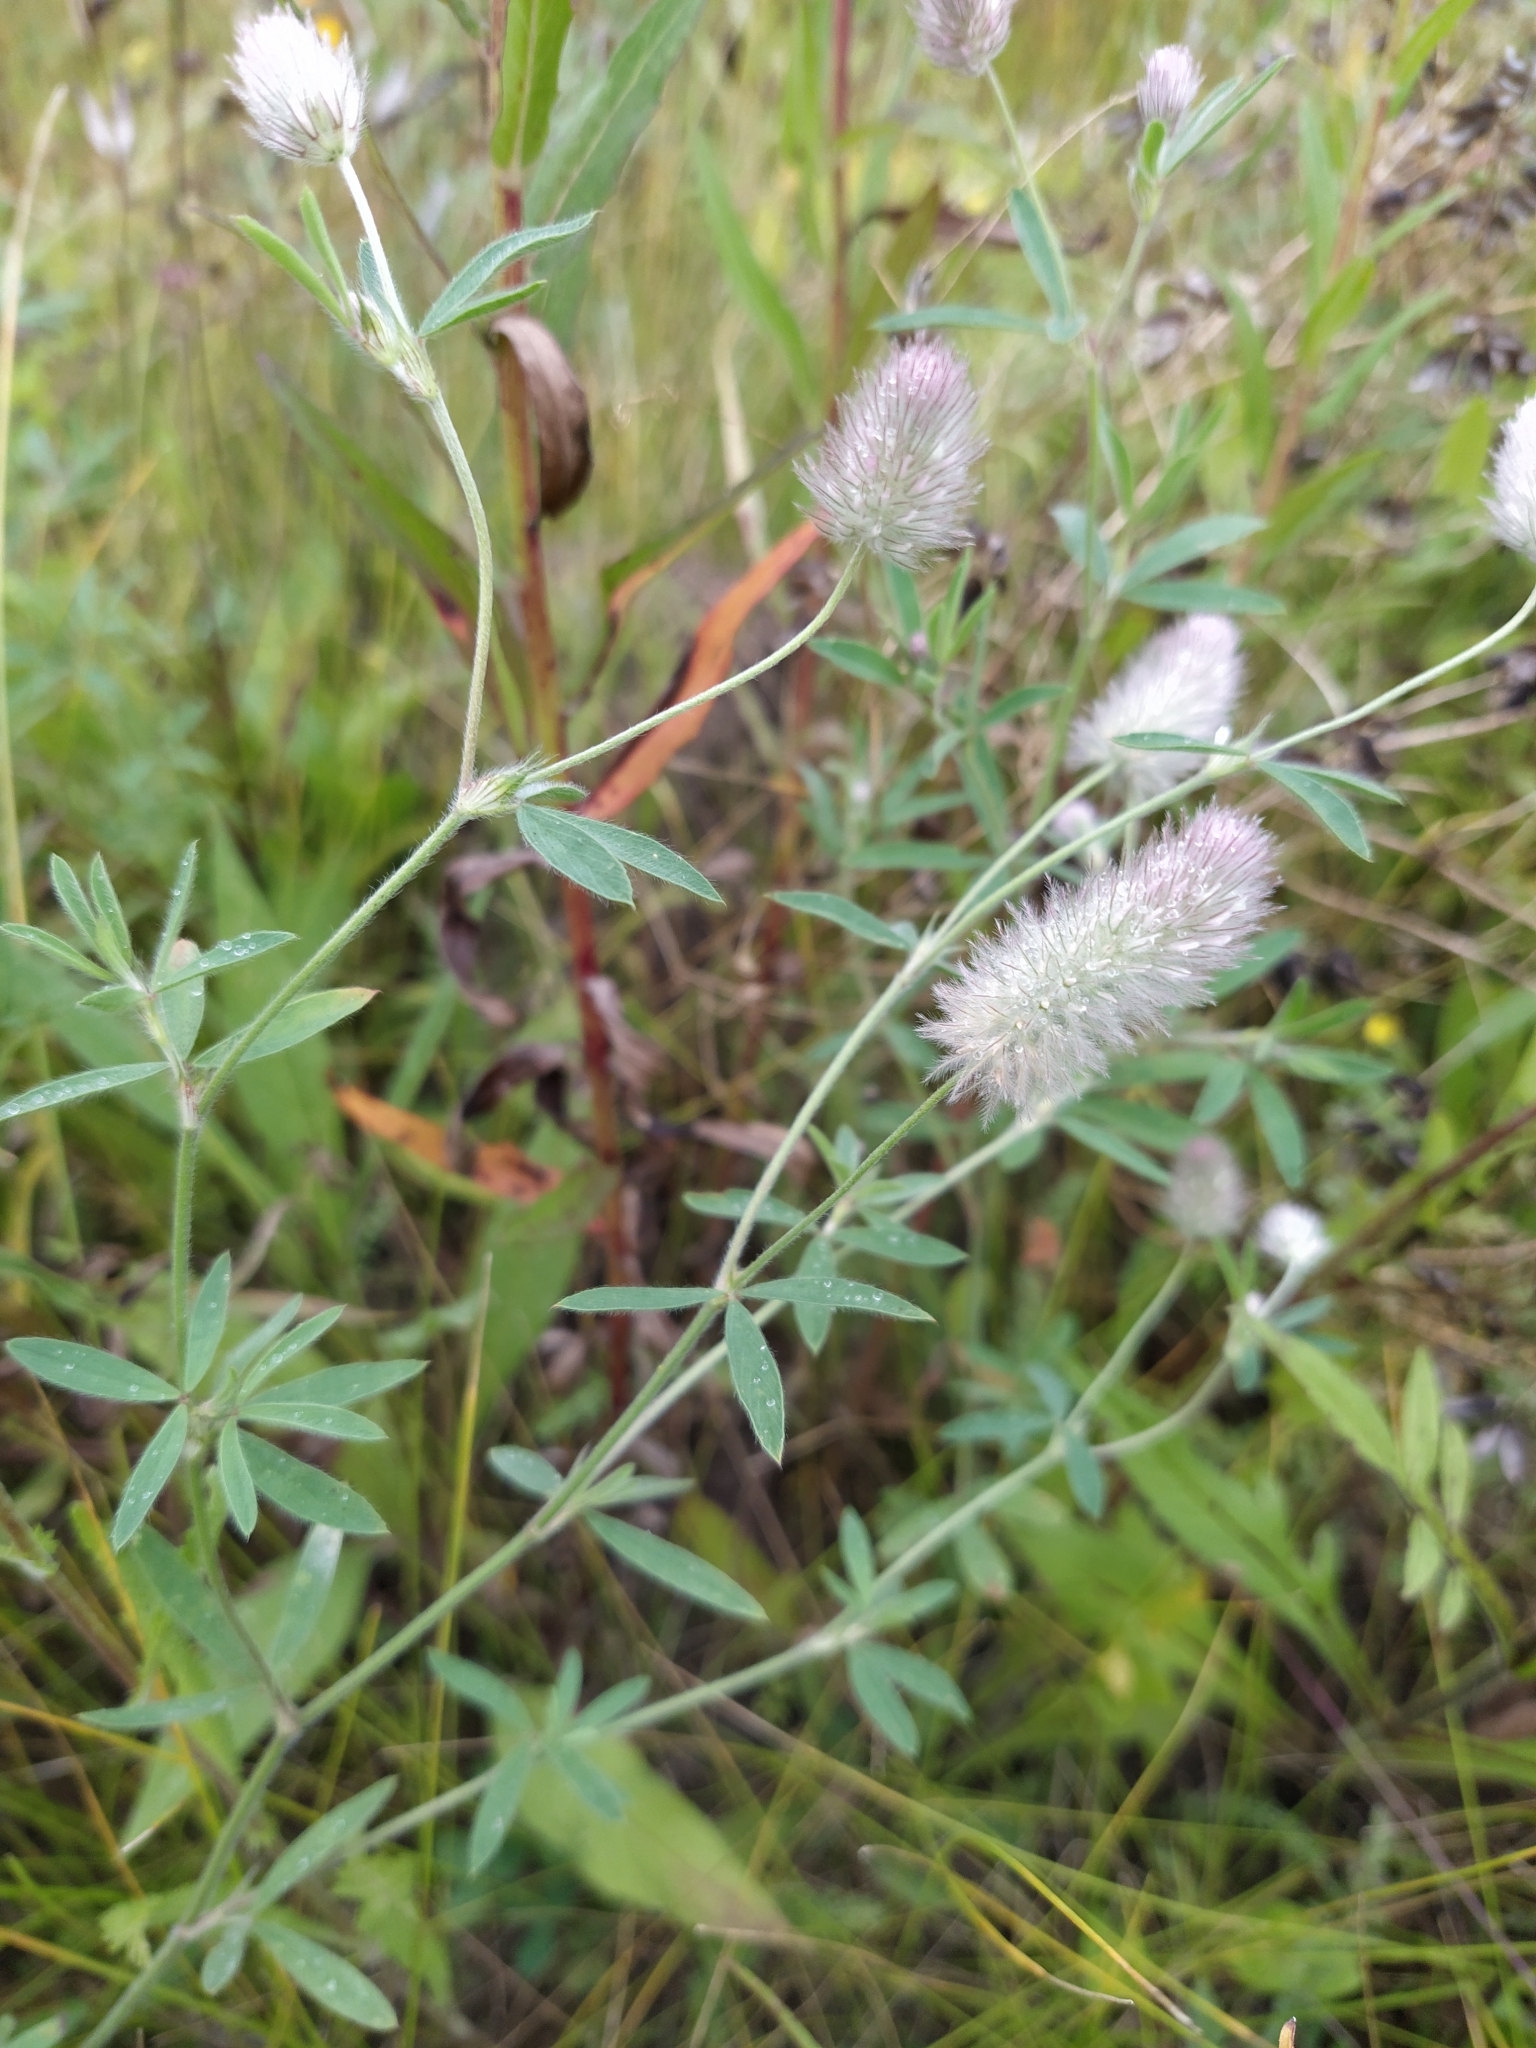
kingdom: Plantae
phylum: Tracheophyta
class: Magnoliopsida
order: Fabales
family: Fabaceae
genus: Trifolium
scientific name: Trifolium arvense
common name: Hare's-foot clover
